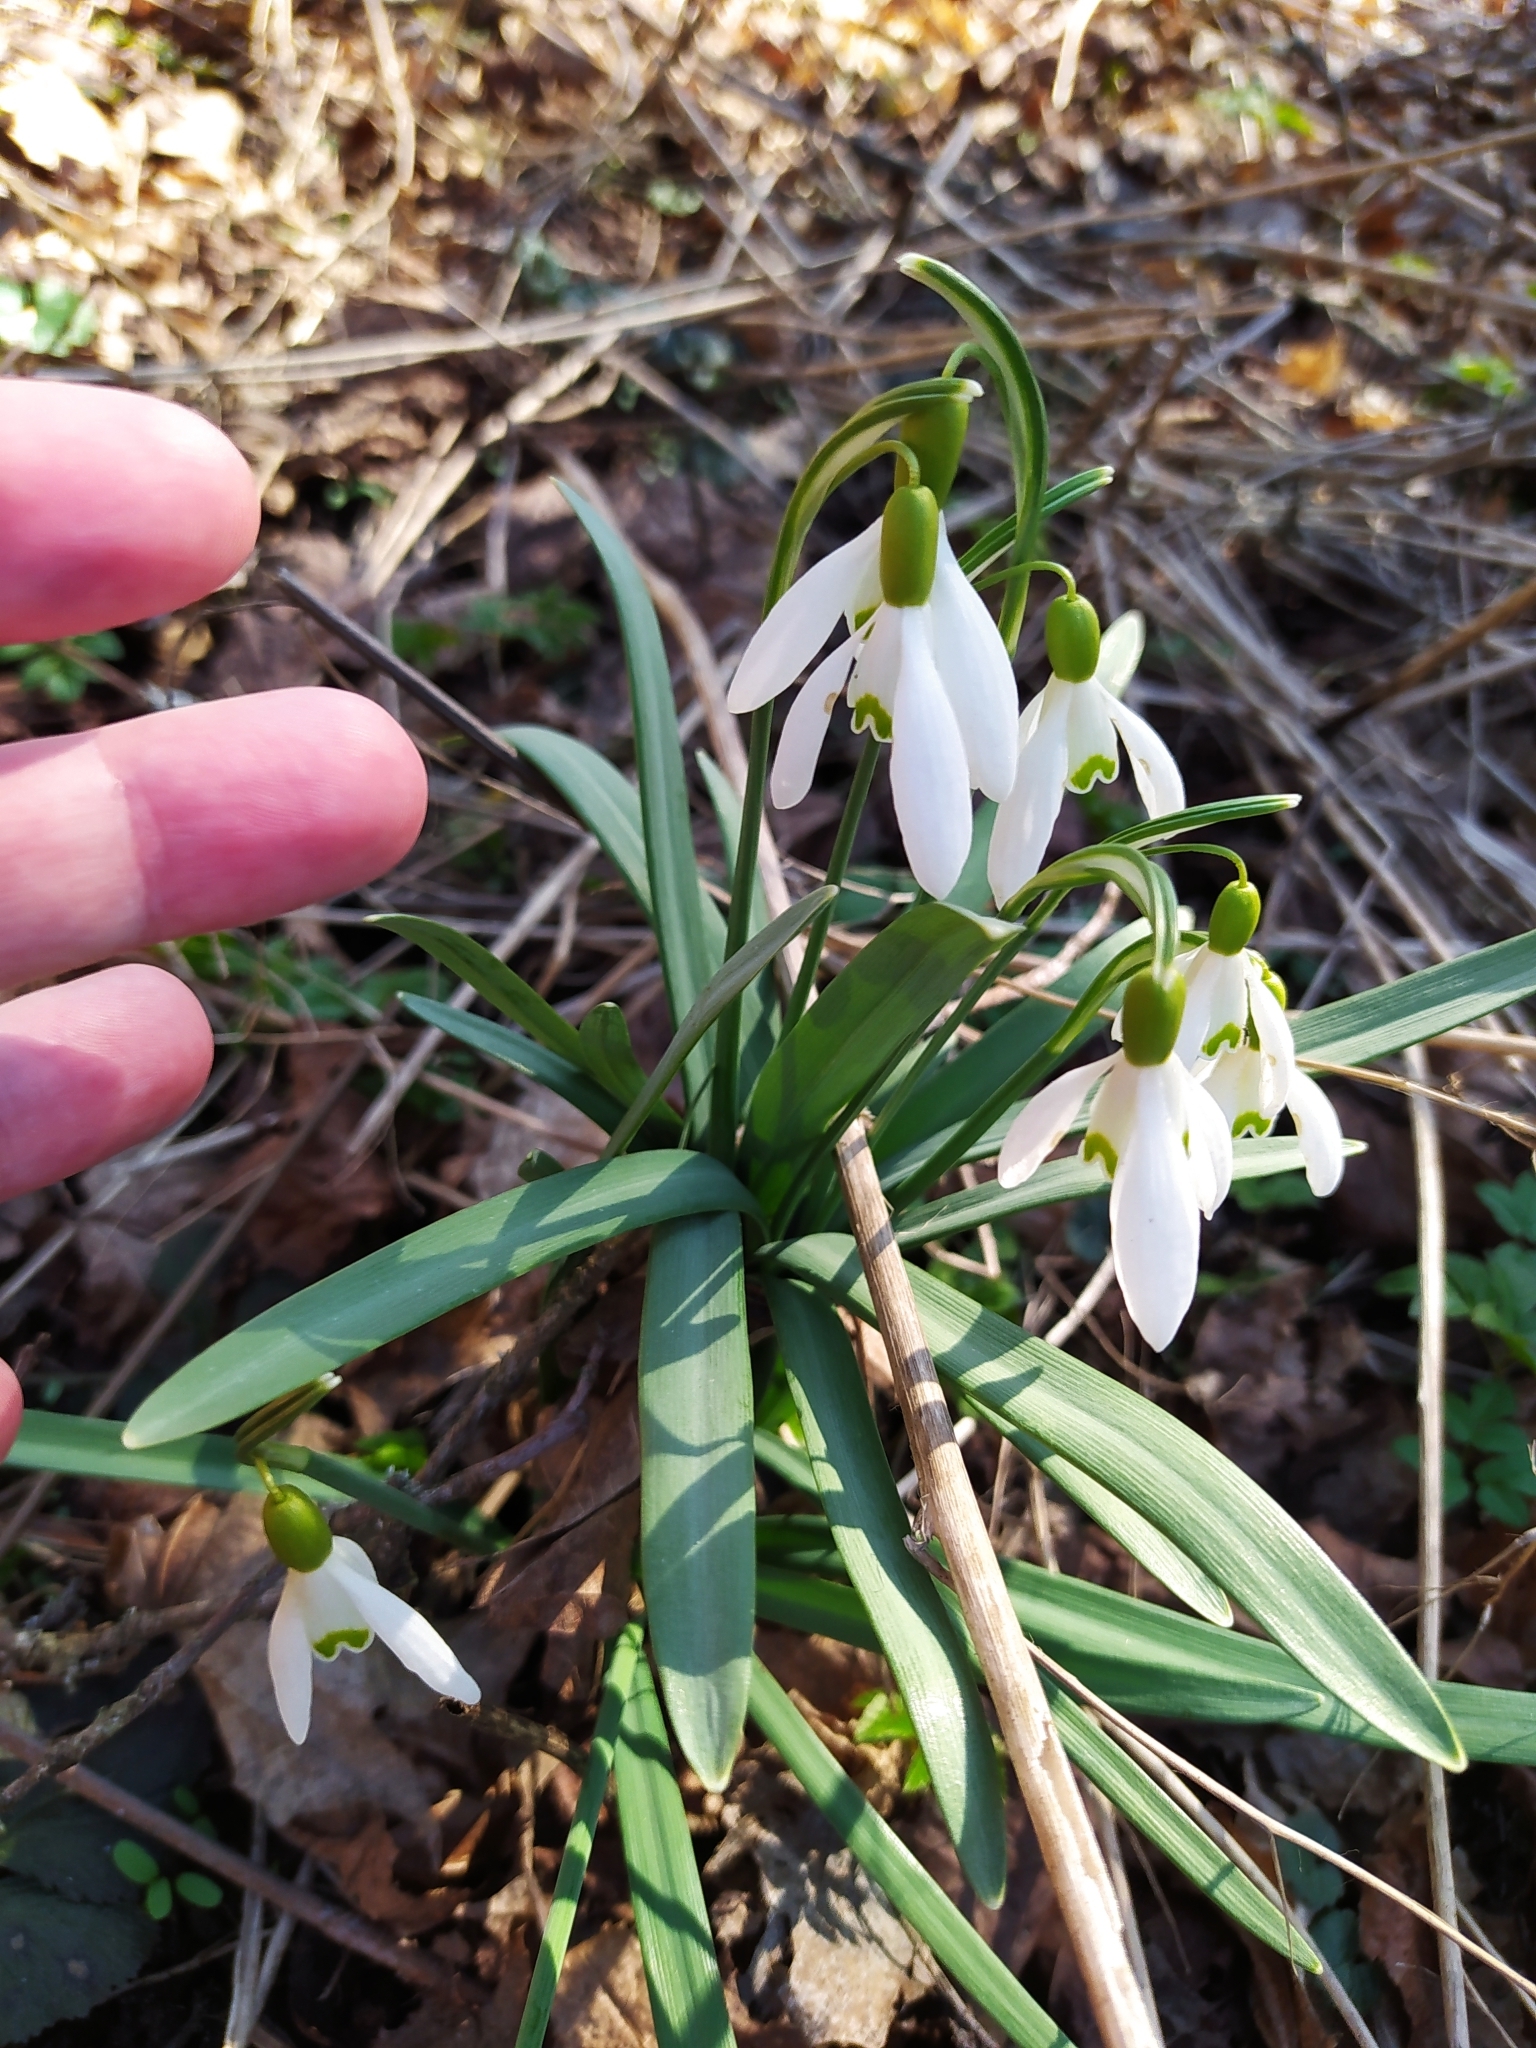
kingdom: Plantae
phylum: Tracheophyta
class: Liliopsida
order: Asparagales
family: Amaryllidaceae
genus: Galanthus
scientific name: Galanthus nivalis
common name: Snowdrop
